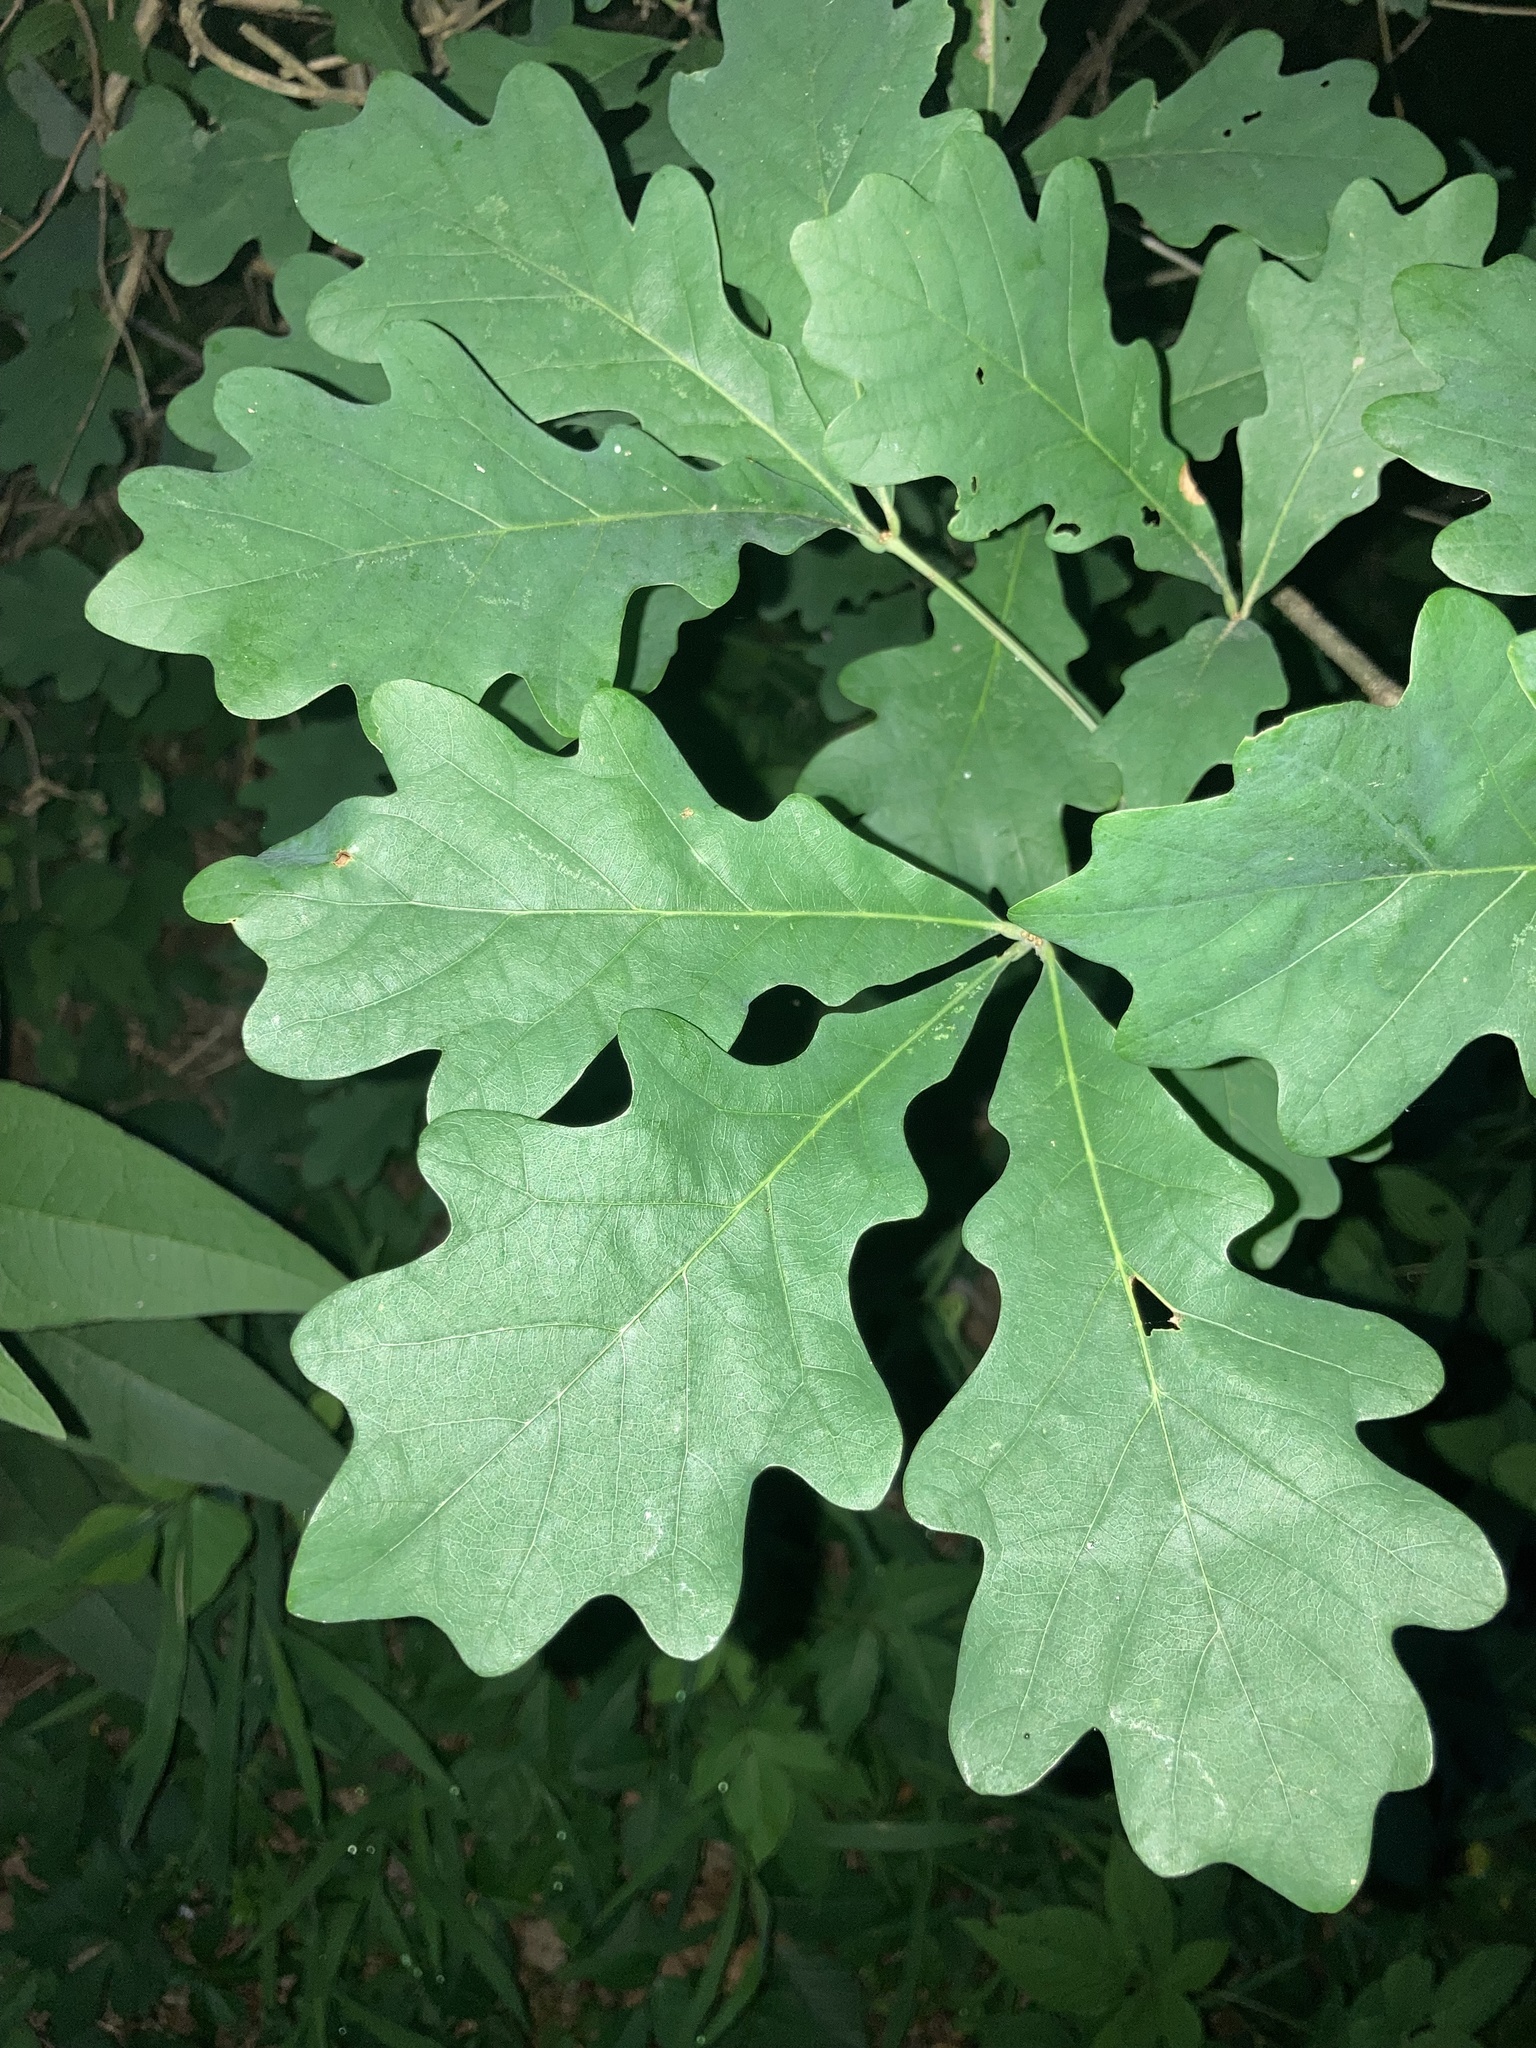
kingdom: Plantae
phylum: Tracheophyta
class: Magnoliopsida
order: Fagales
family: Fagaceae
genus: Quercus
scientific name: Quercus alba
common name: White oak
